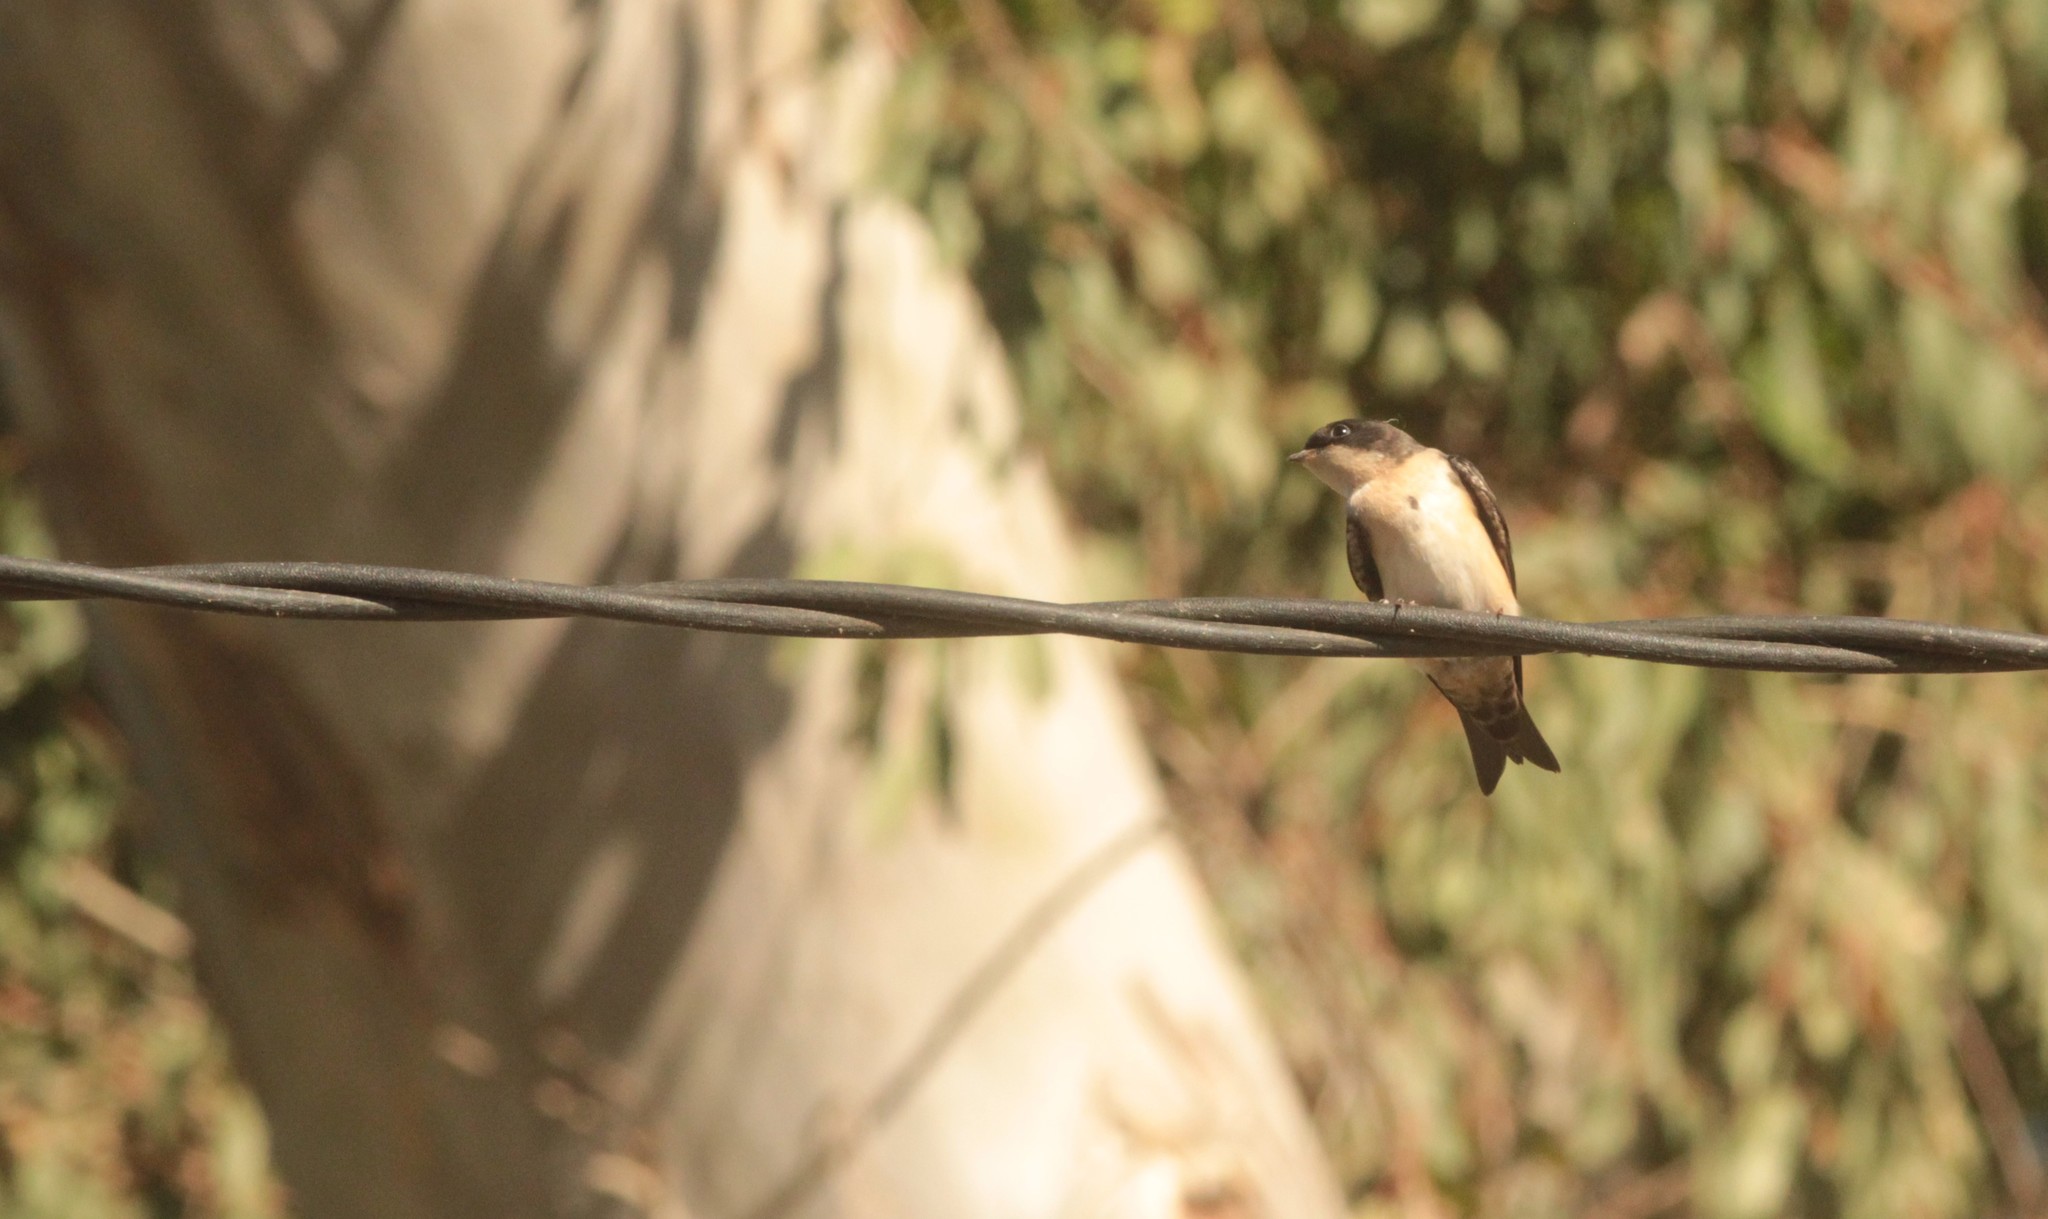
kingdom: Animalia
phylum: Chordata
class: Aves
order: Passeriformes
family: Hirundinidae
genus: Notiochelidon
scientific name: Notiochelidon cyanoleuca
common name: Blue-and-white swallow
